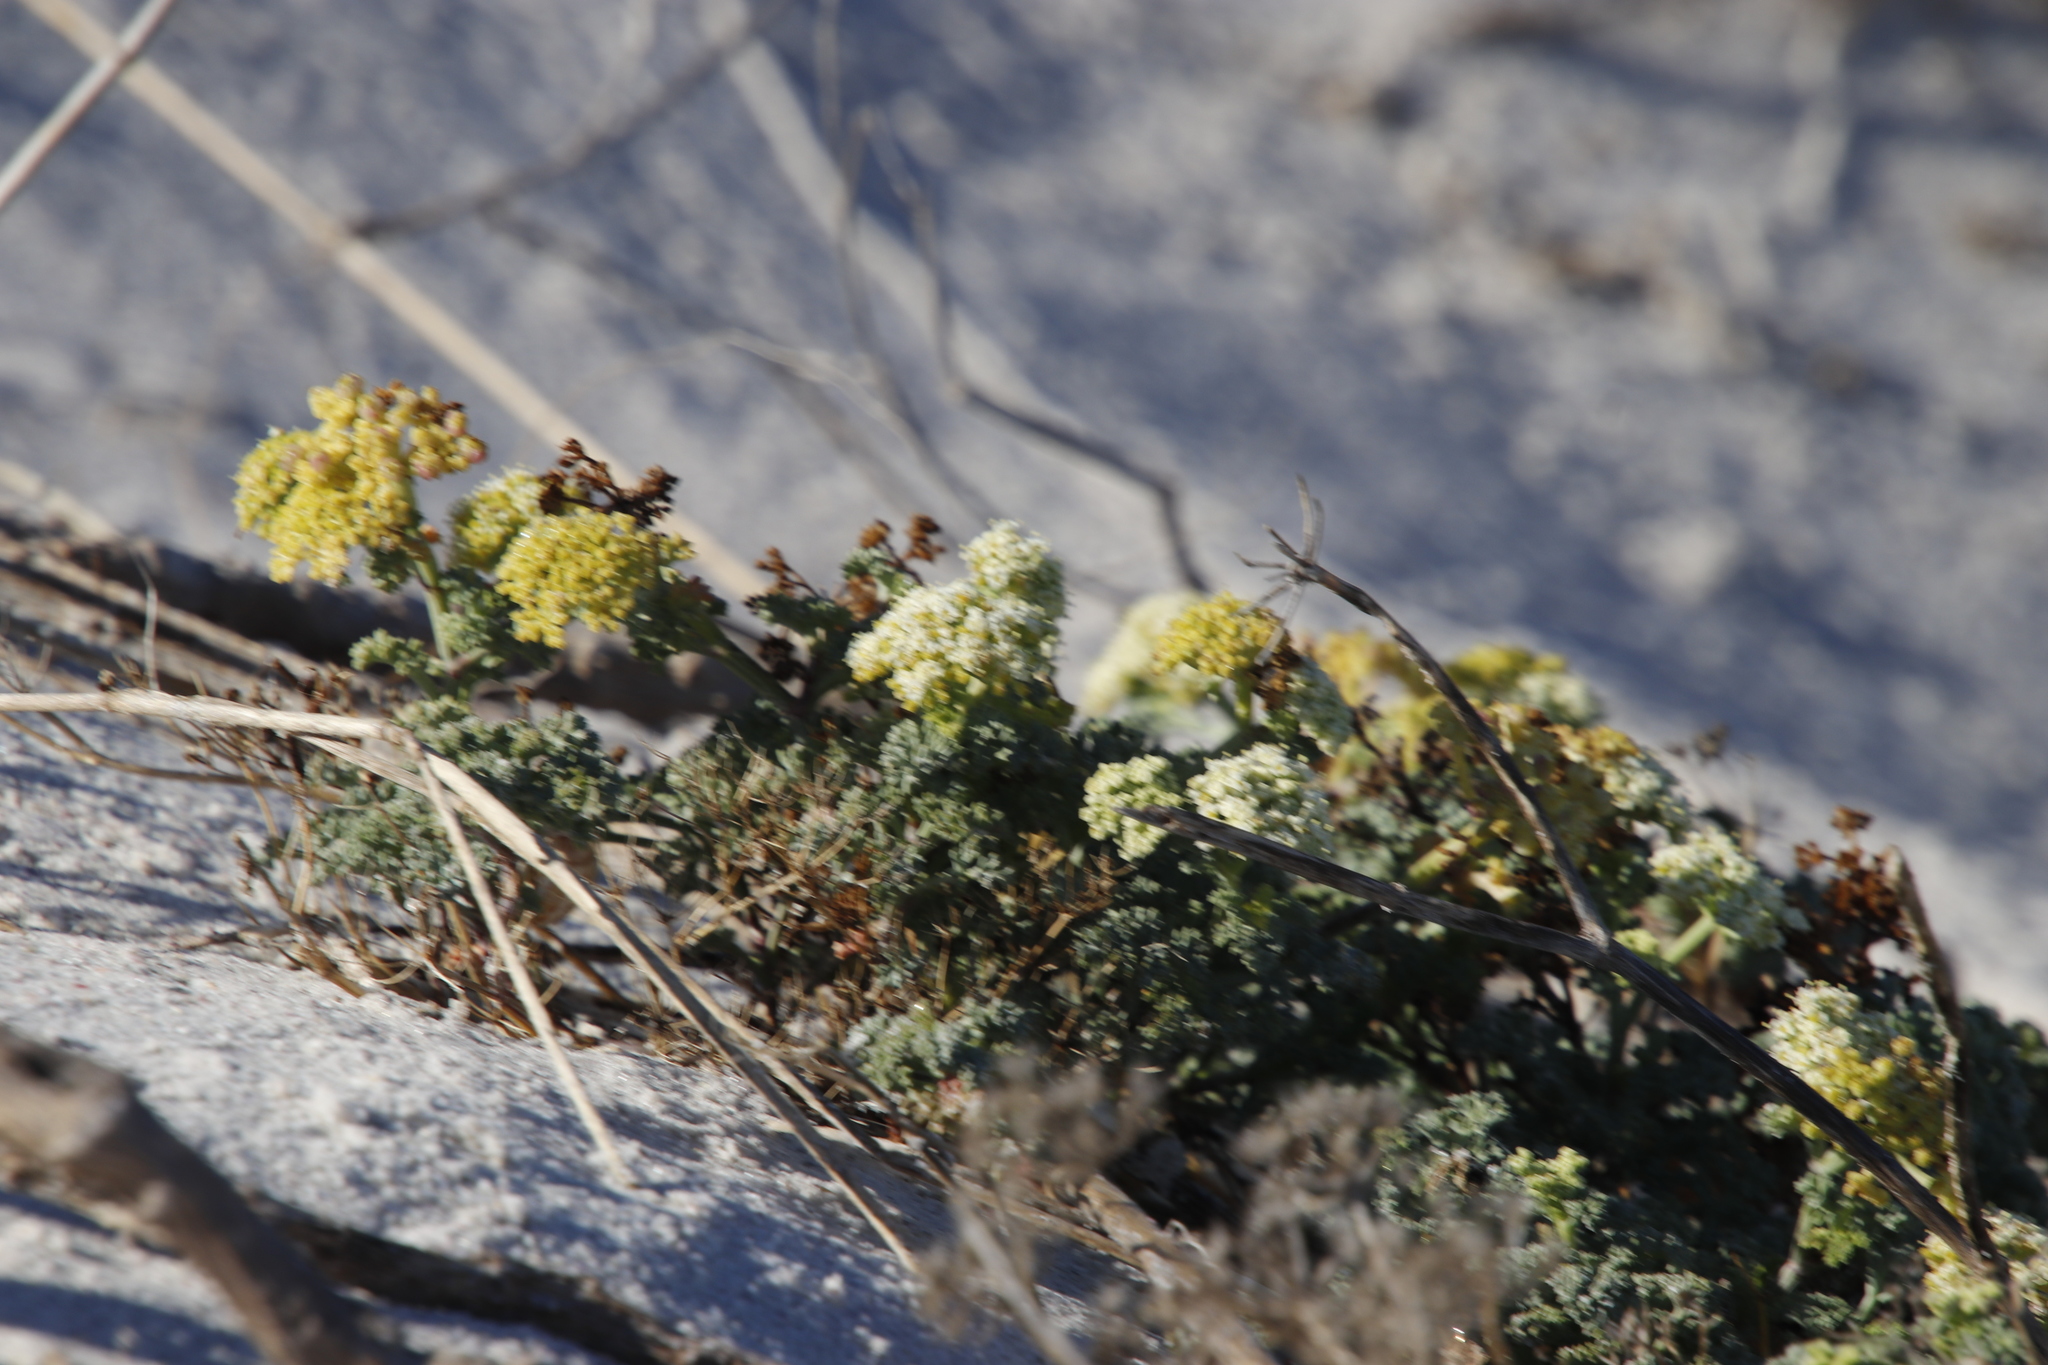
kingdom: Plantae
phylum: Tracheophyta
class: Magnoliopsida
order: Apiales
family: Apiaceae
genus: Dasispermum
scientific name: Dasispermum suffruticosum
